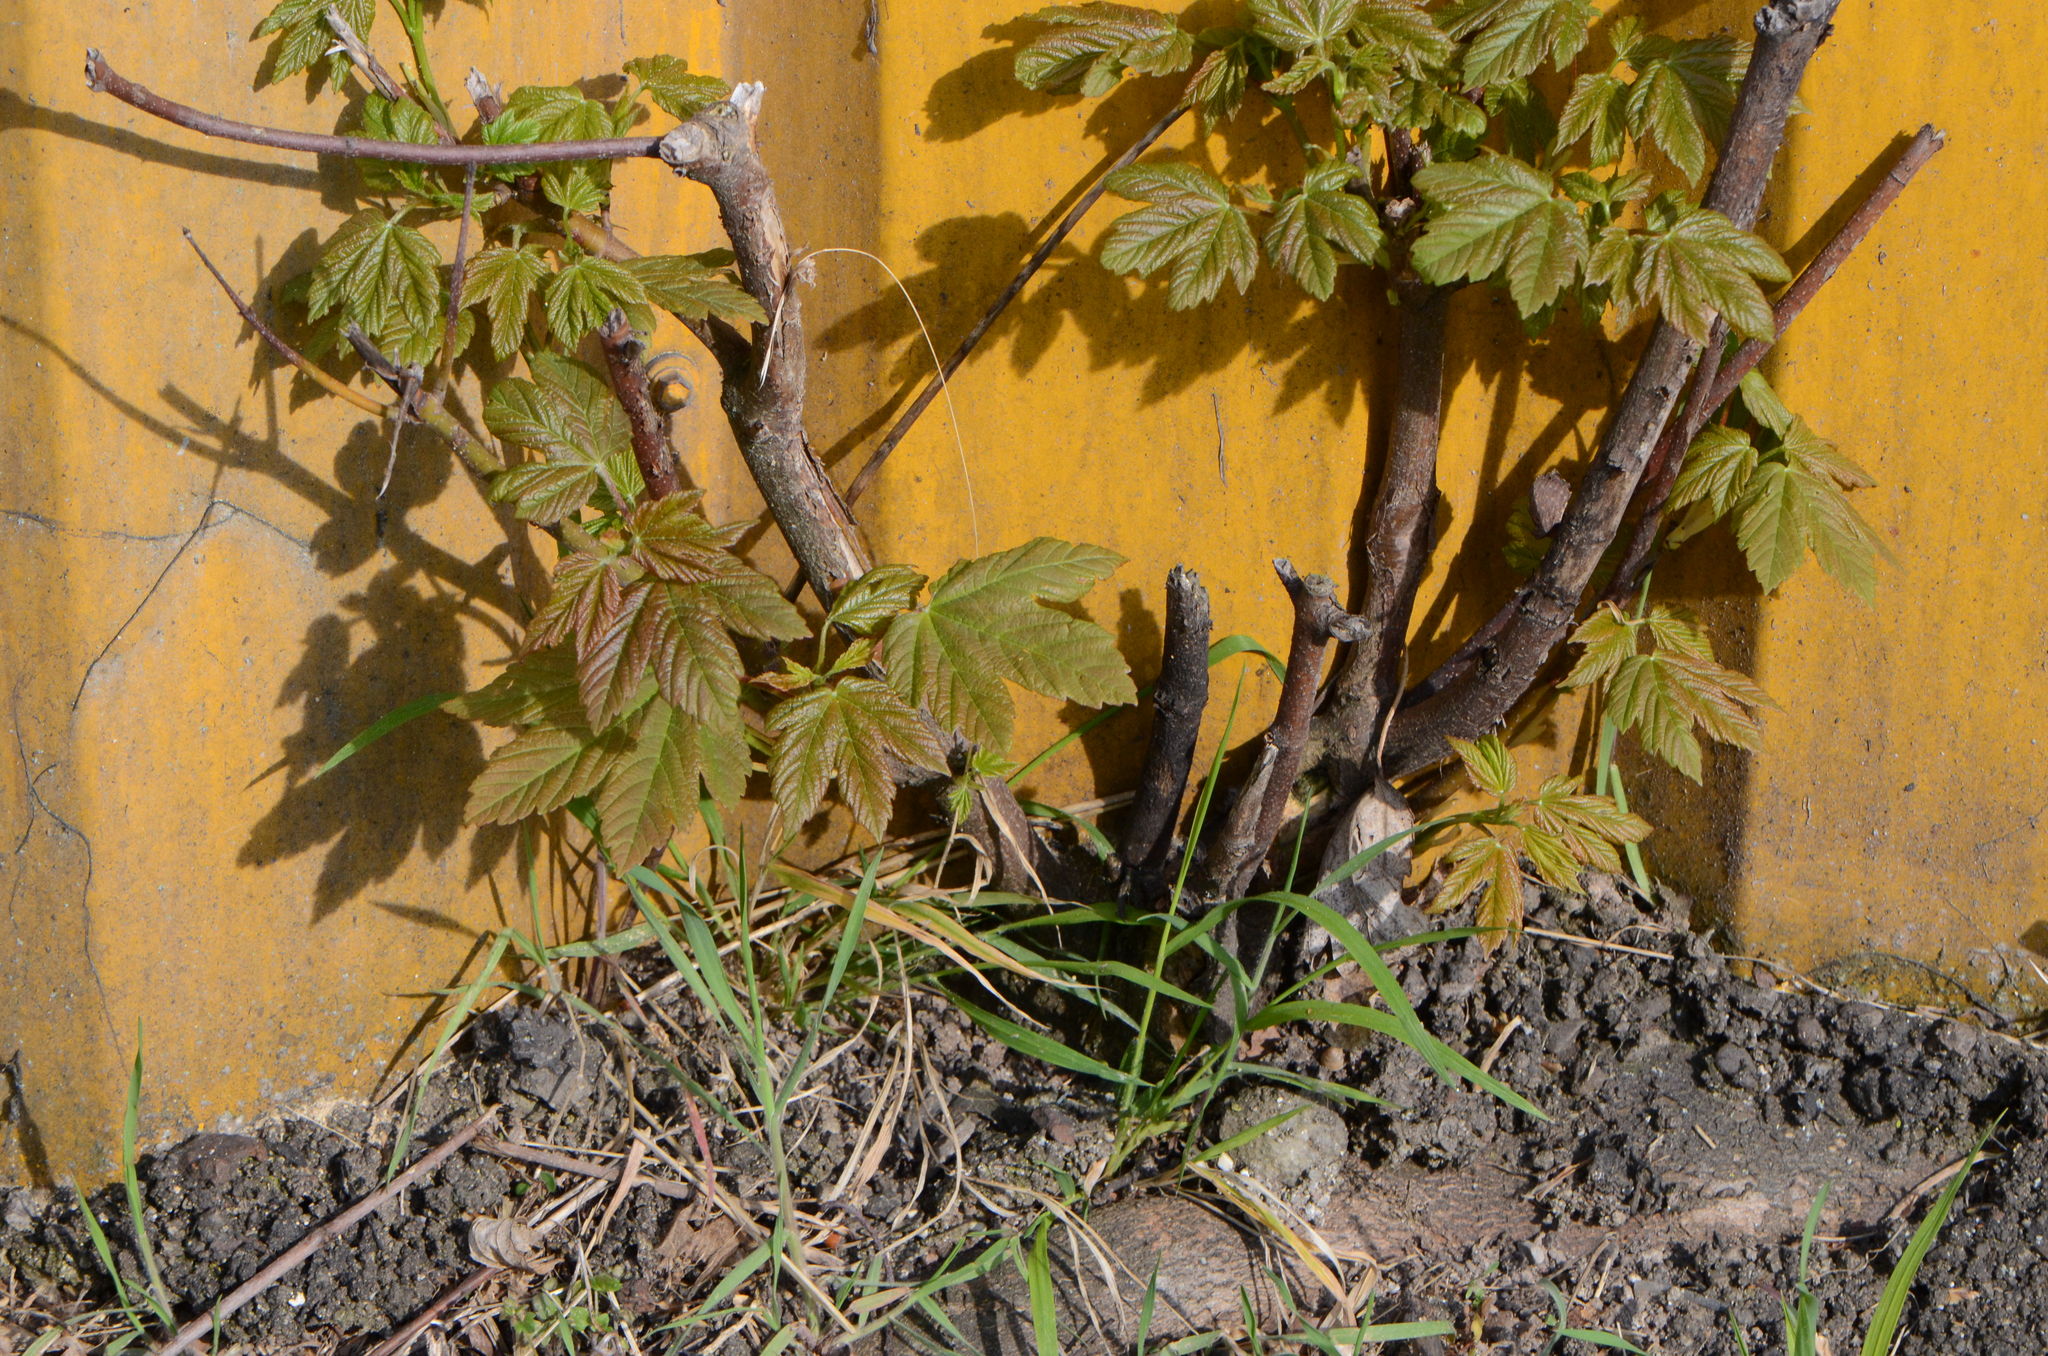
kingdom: Plantae
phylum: Tracheophyta
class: Magnoliopsida
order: Sapindales
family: Sapindaceae
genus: Acer
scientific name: Acer pseudoplatanus
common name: Sycamore
